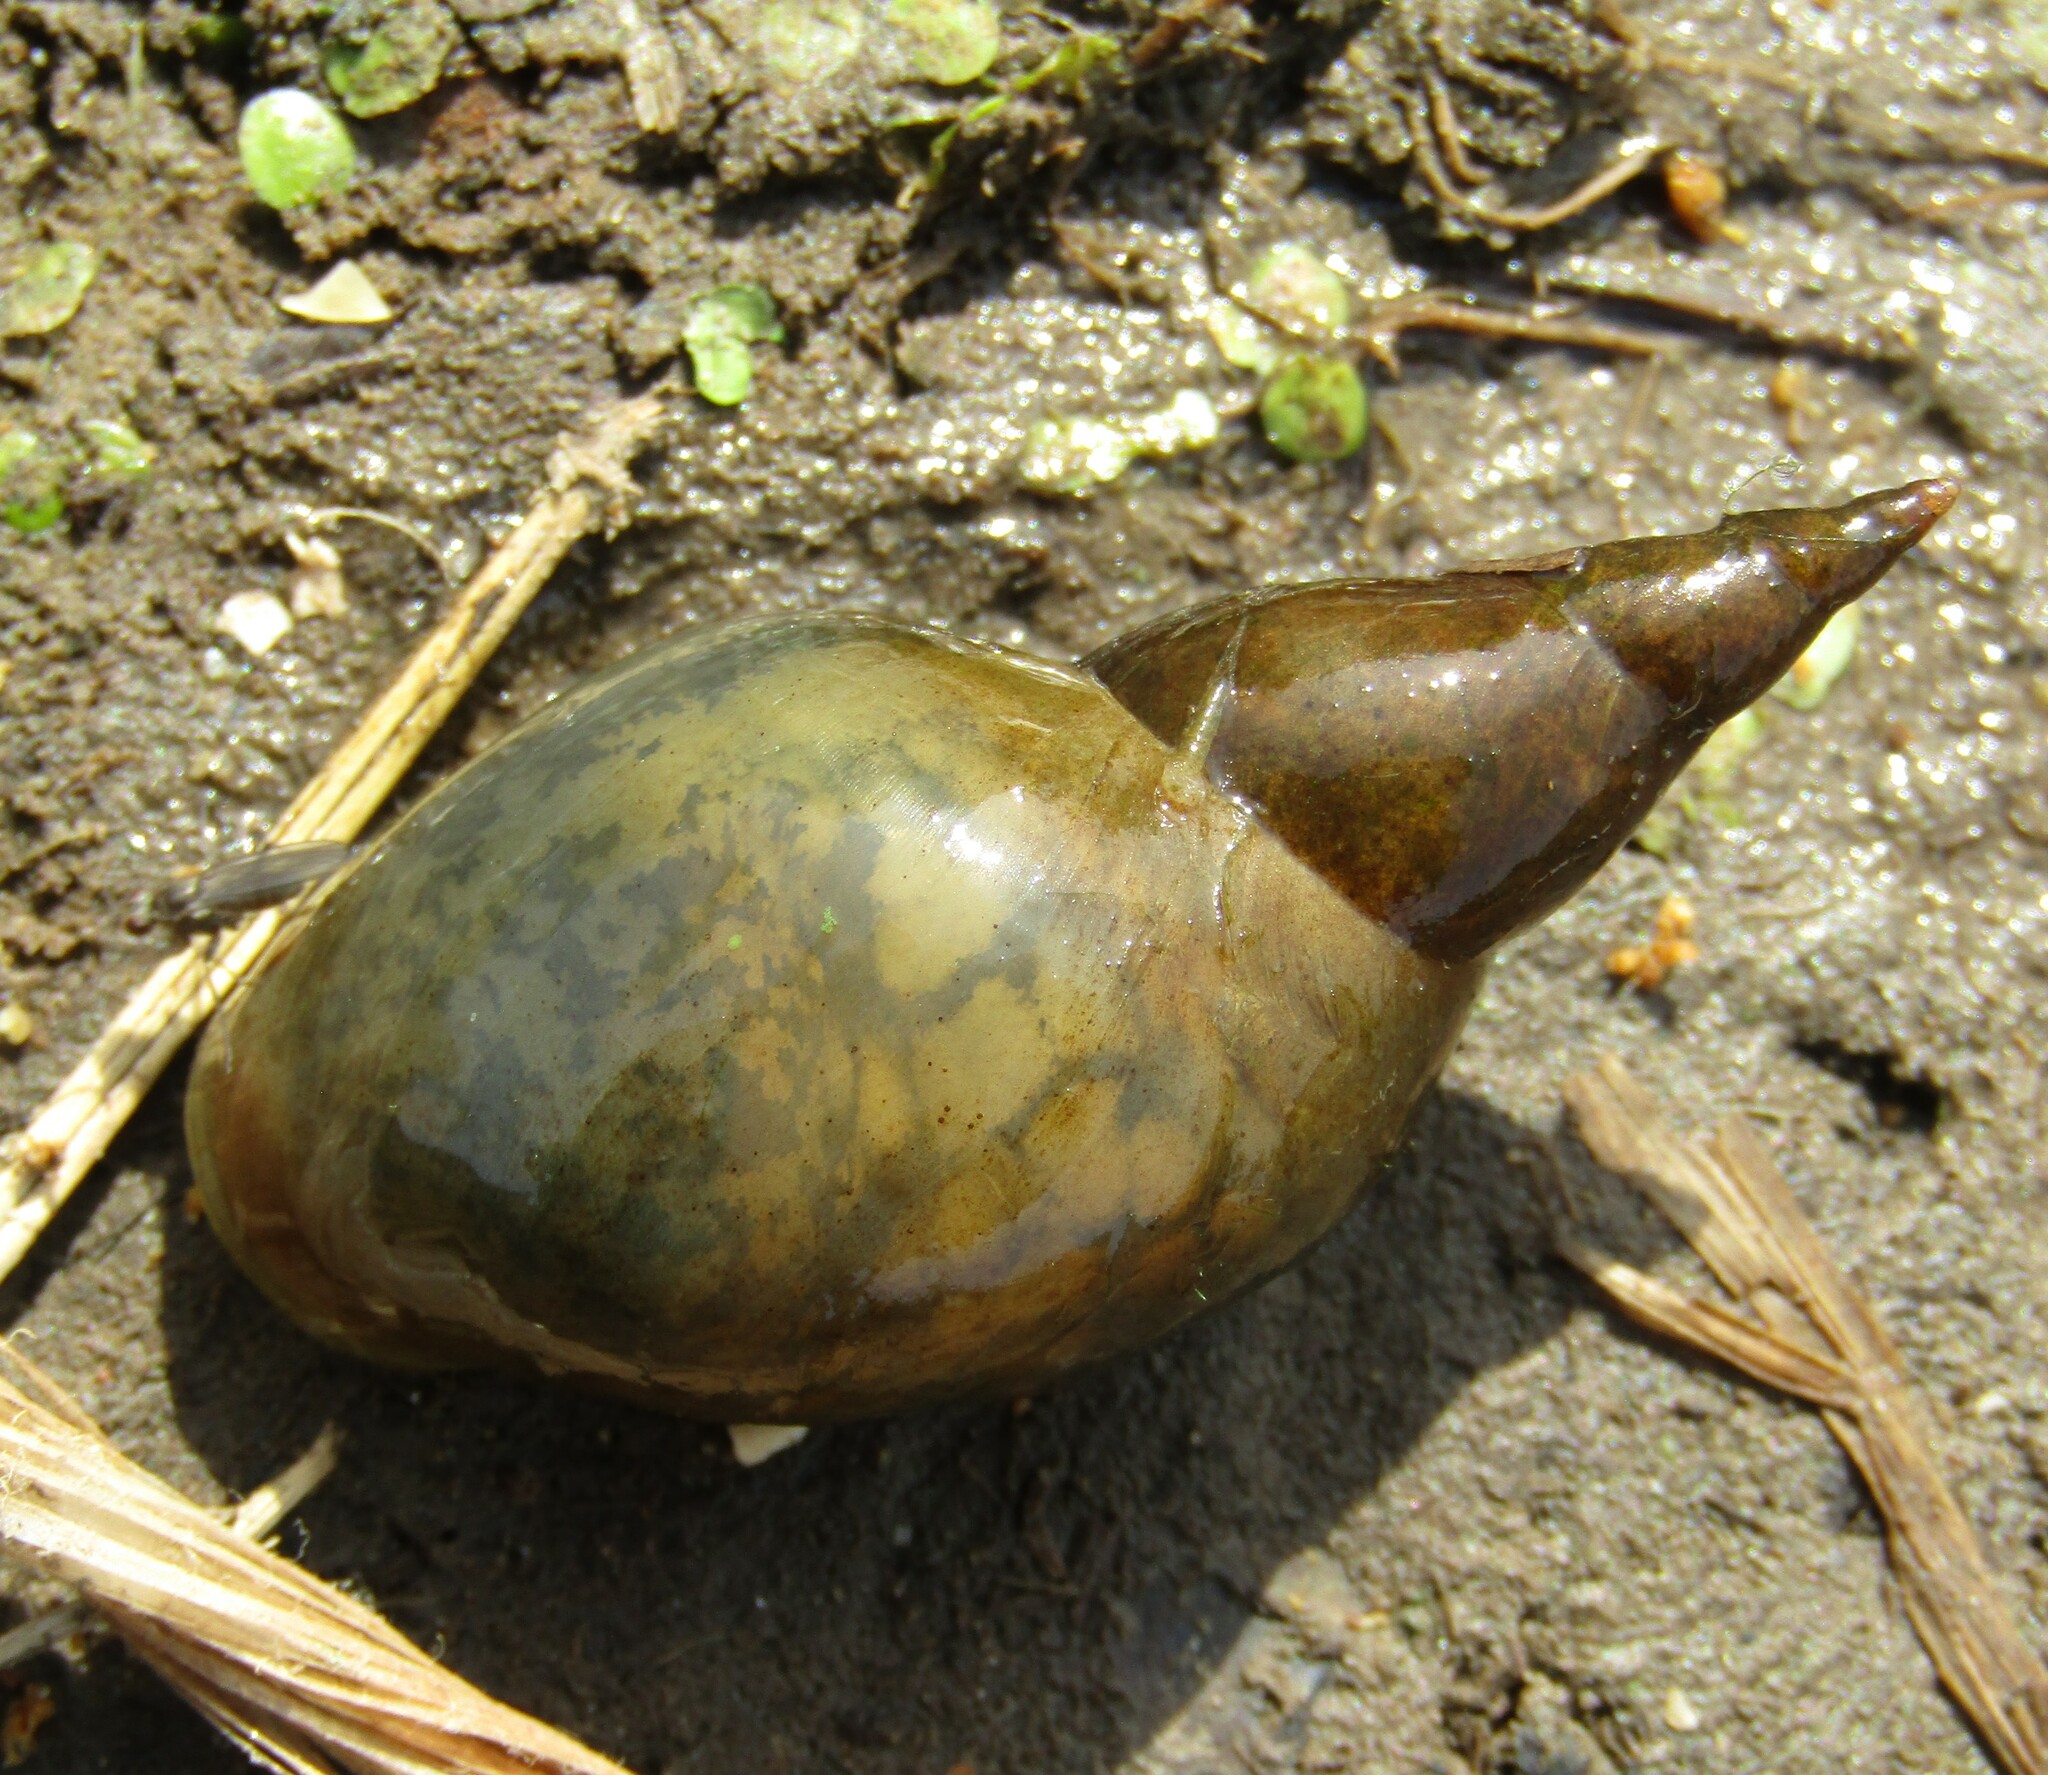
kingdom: Animalia
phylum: Mollusca
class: Gastropoda
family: Lymnaeidae
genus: Lymnaea
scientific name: Lymnaea stagnalis
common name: Great pond snail
